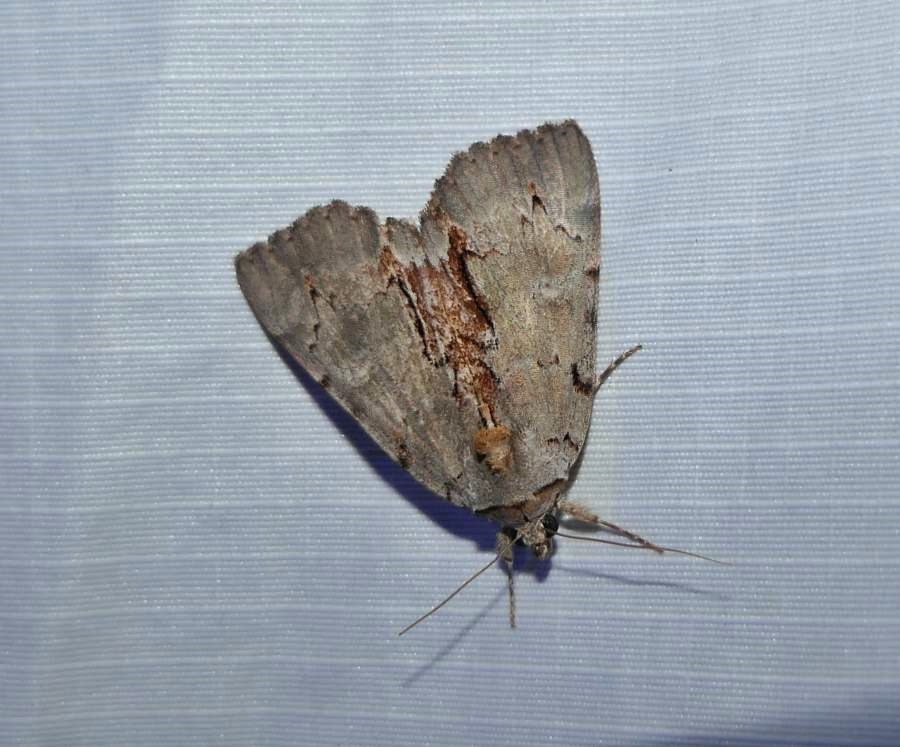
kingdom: Animalia
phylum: Arthropoda
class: Insecta
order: Lepidoptera
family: Erebidae
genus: Catocala
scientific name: Catocala grynea
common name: Woody underwing
